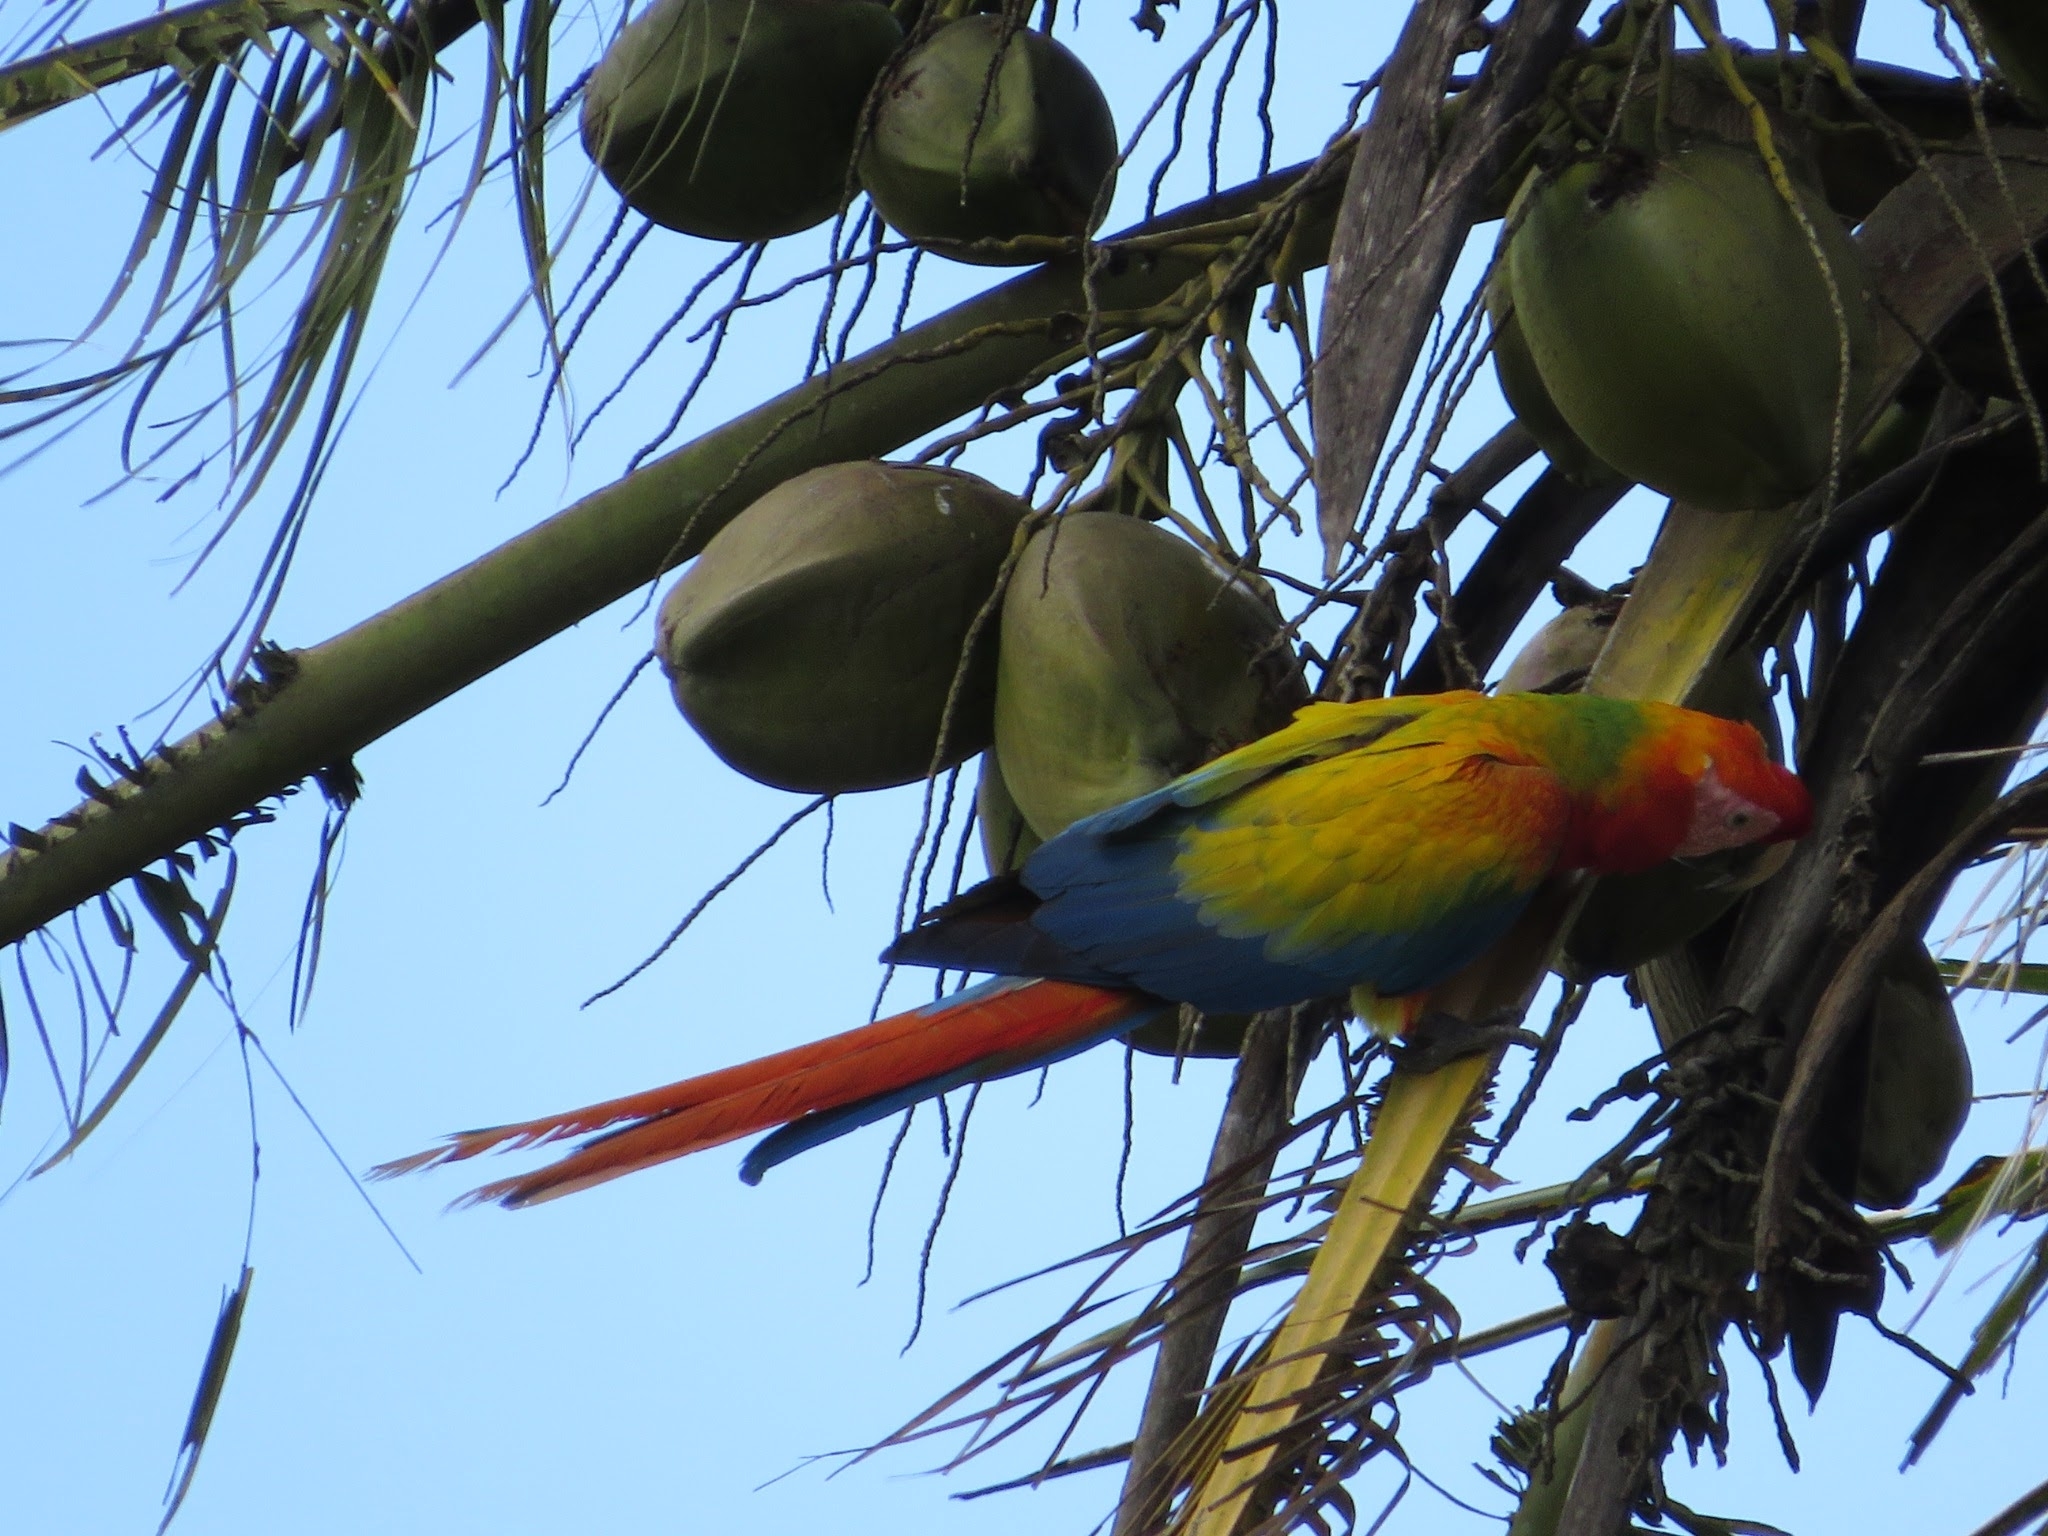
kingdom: Plantae
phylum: Tracheophyta
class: Liliopsida
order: Arecales
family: Arecaceae
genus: Cocos
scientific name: Cocos nucifera
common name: Coconut palm
